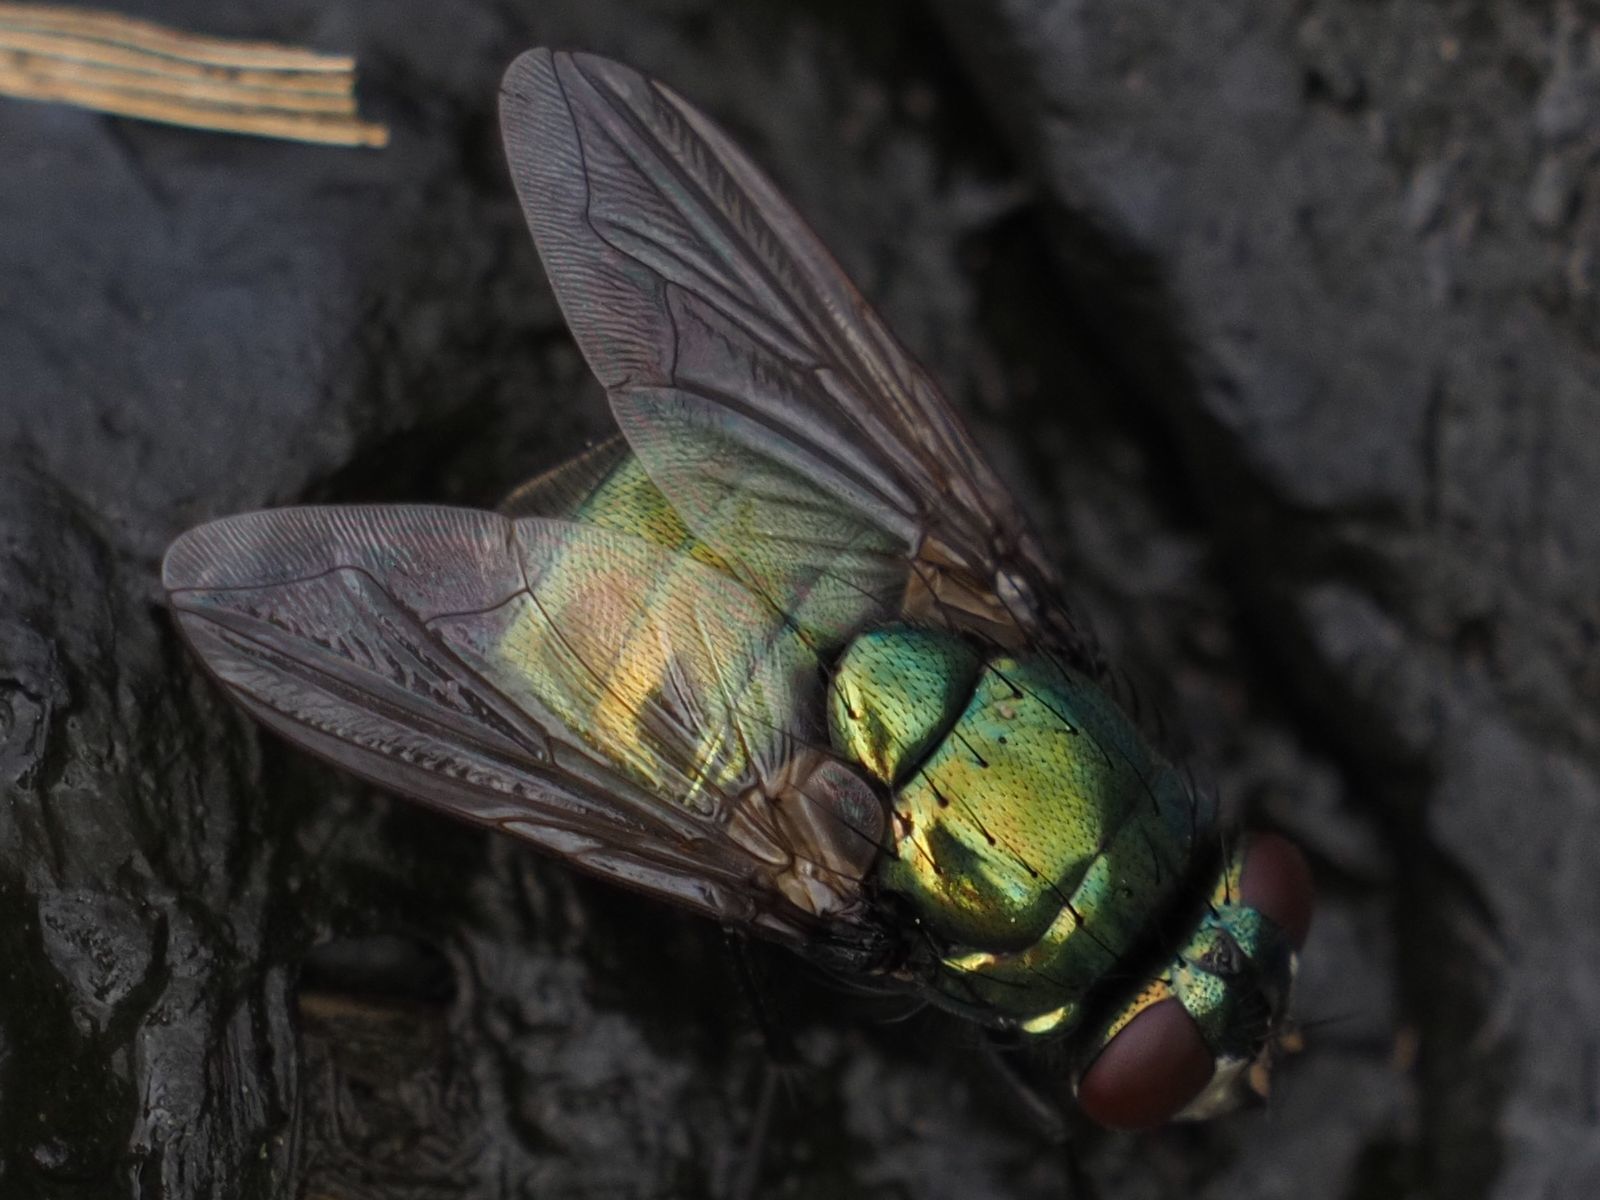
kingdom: Animalia
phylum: Arthropoda
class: Insecta
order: Diptera
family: Muscidae
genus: Neomyia
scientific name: Neomyia cornicina
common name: House fly
